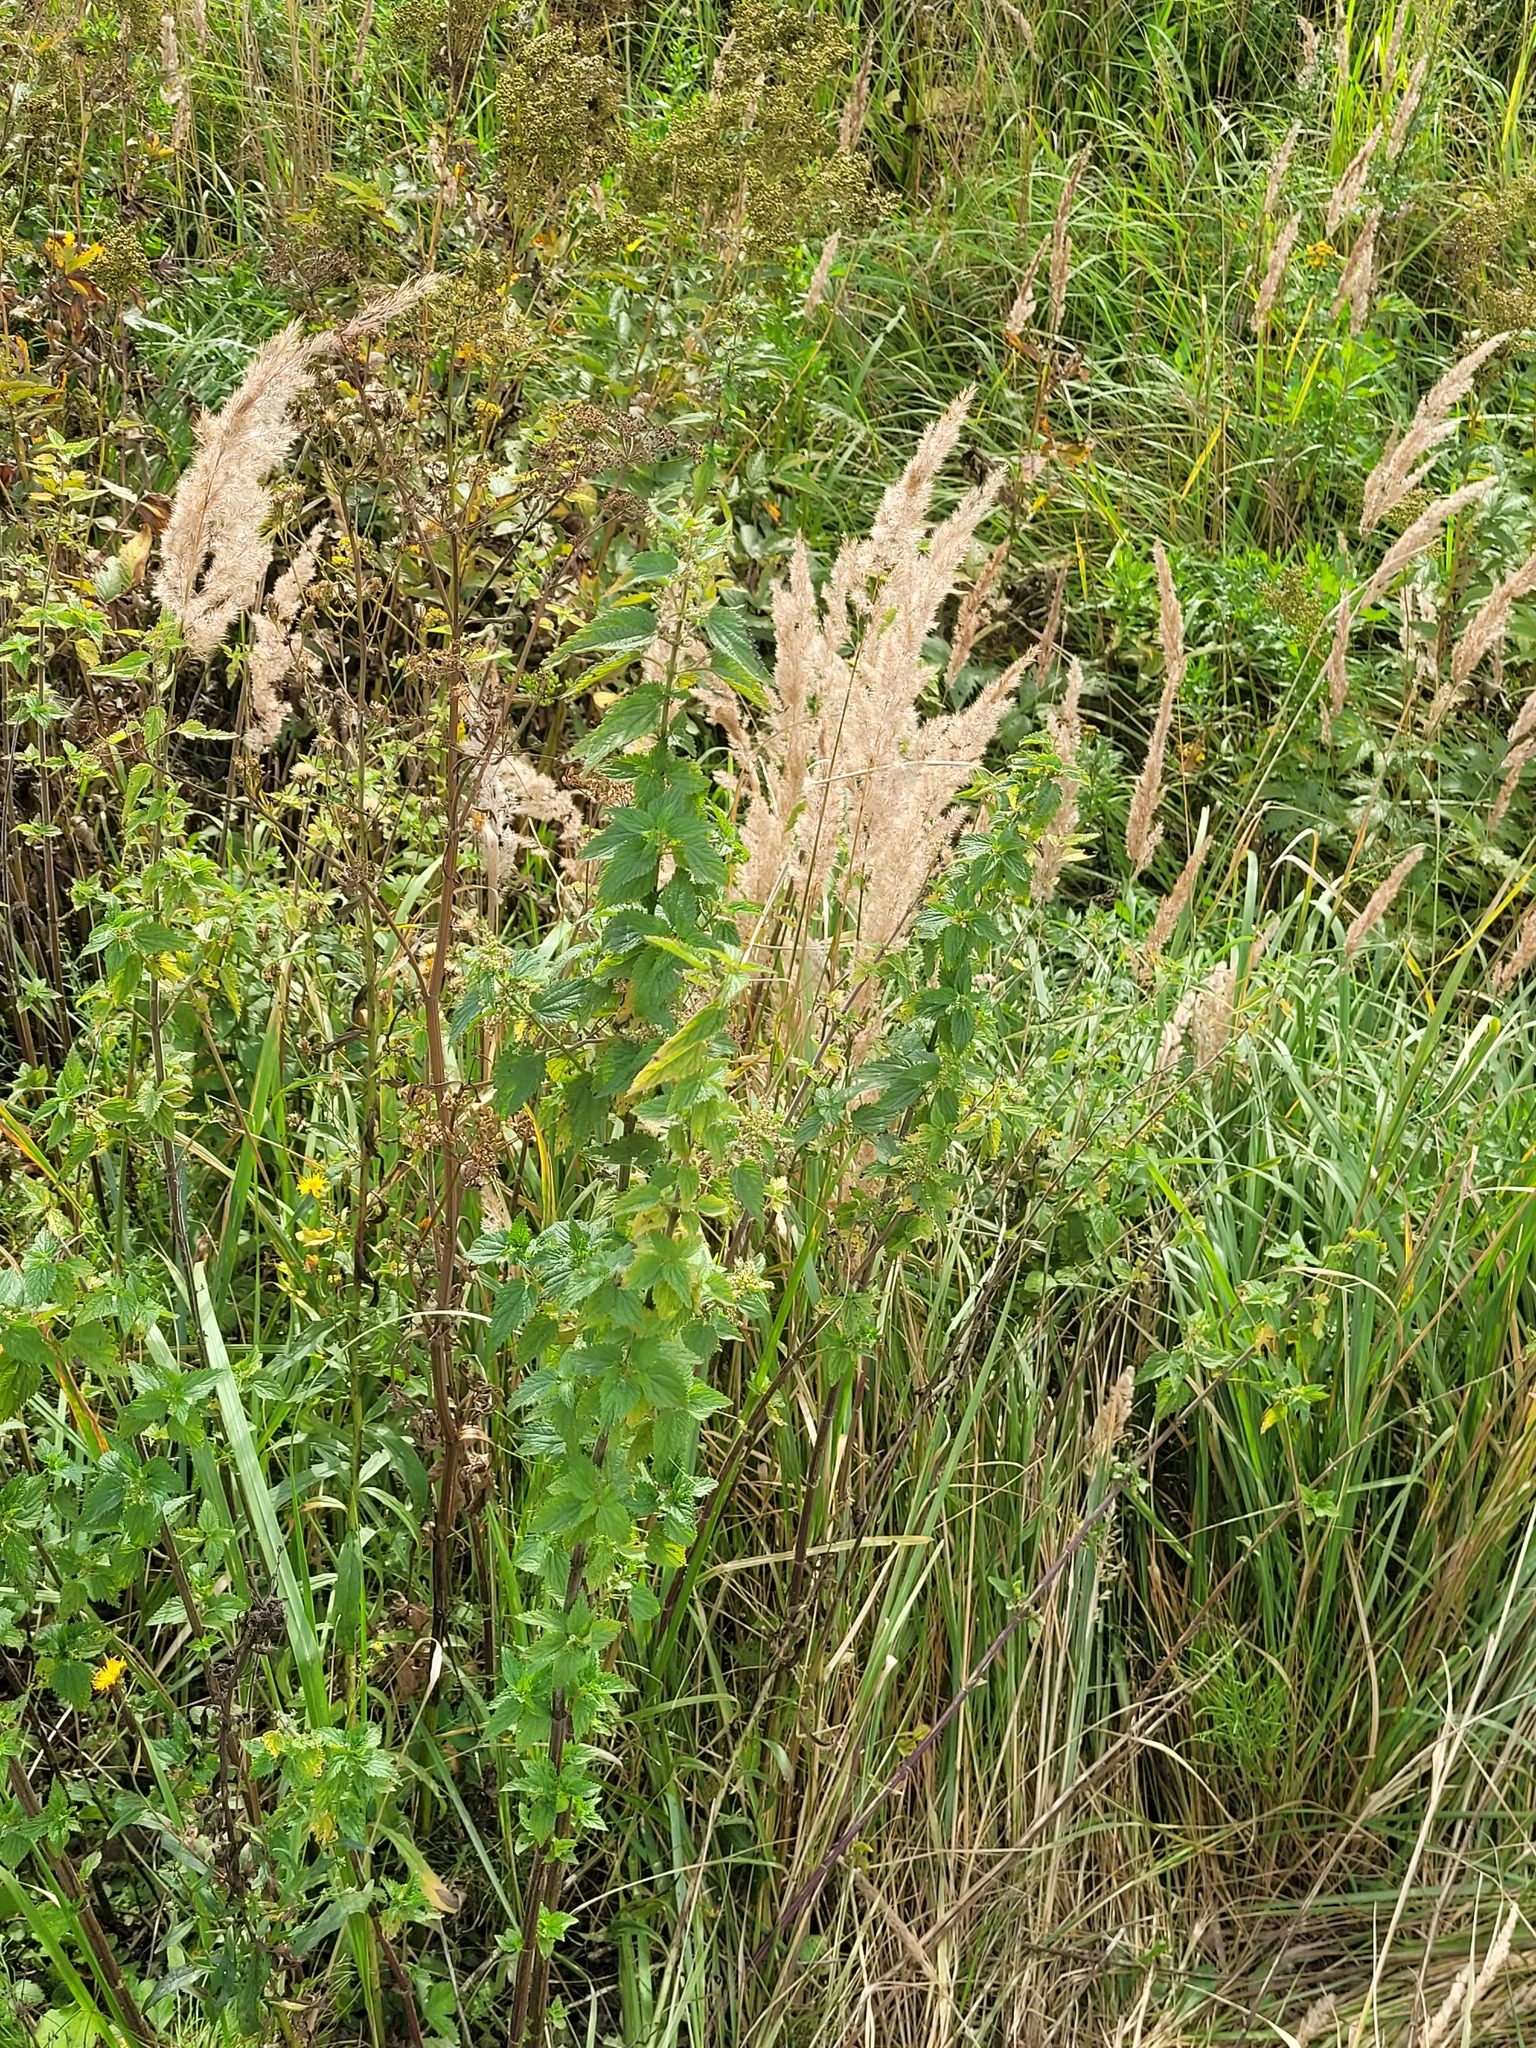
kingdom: Plantae
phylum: Tracheophyta
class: Magnoliopsida
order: Rosales
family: Urticaceae
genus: Urtica
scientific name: Urtica dioica
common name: Common nettle
